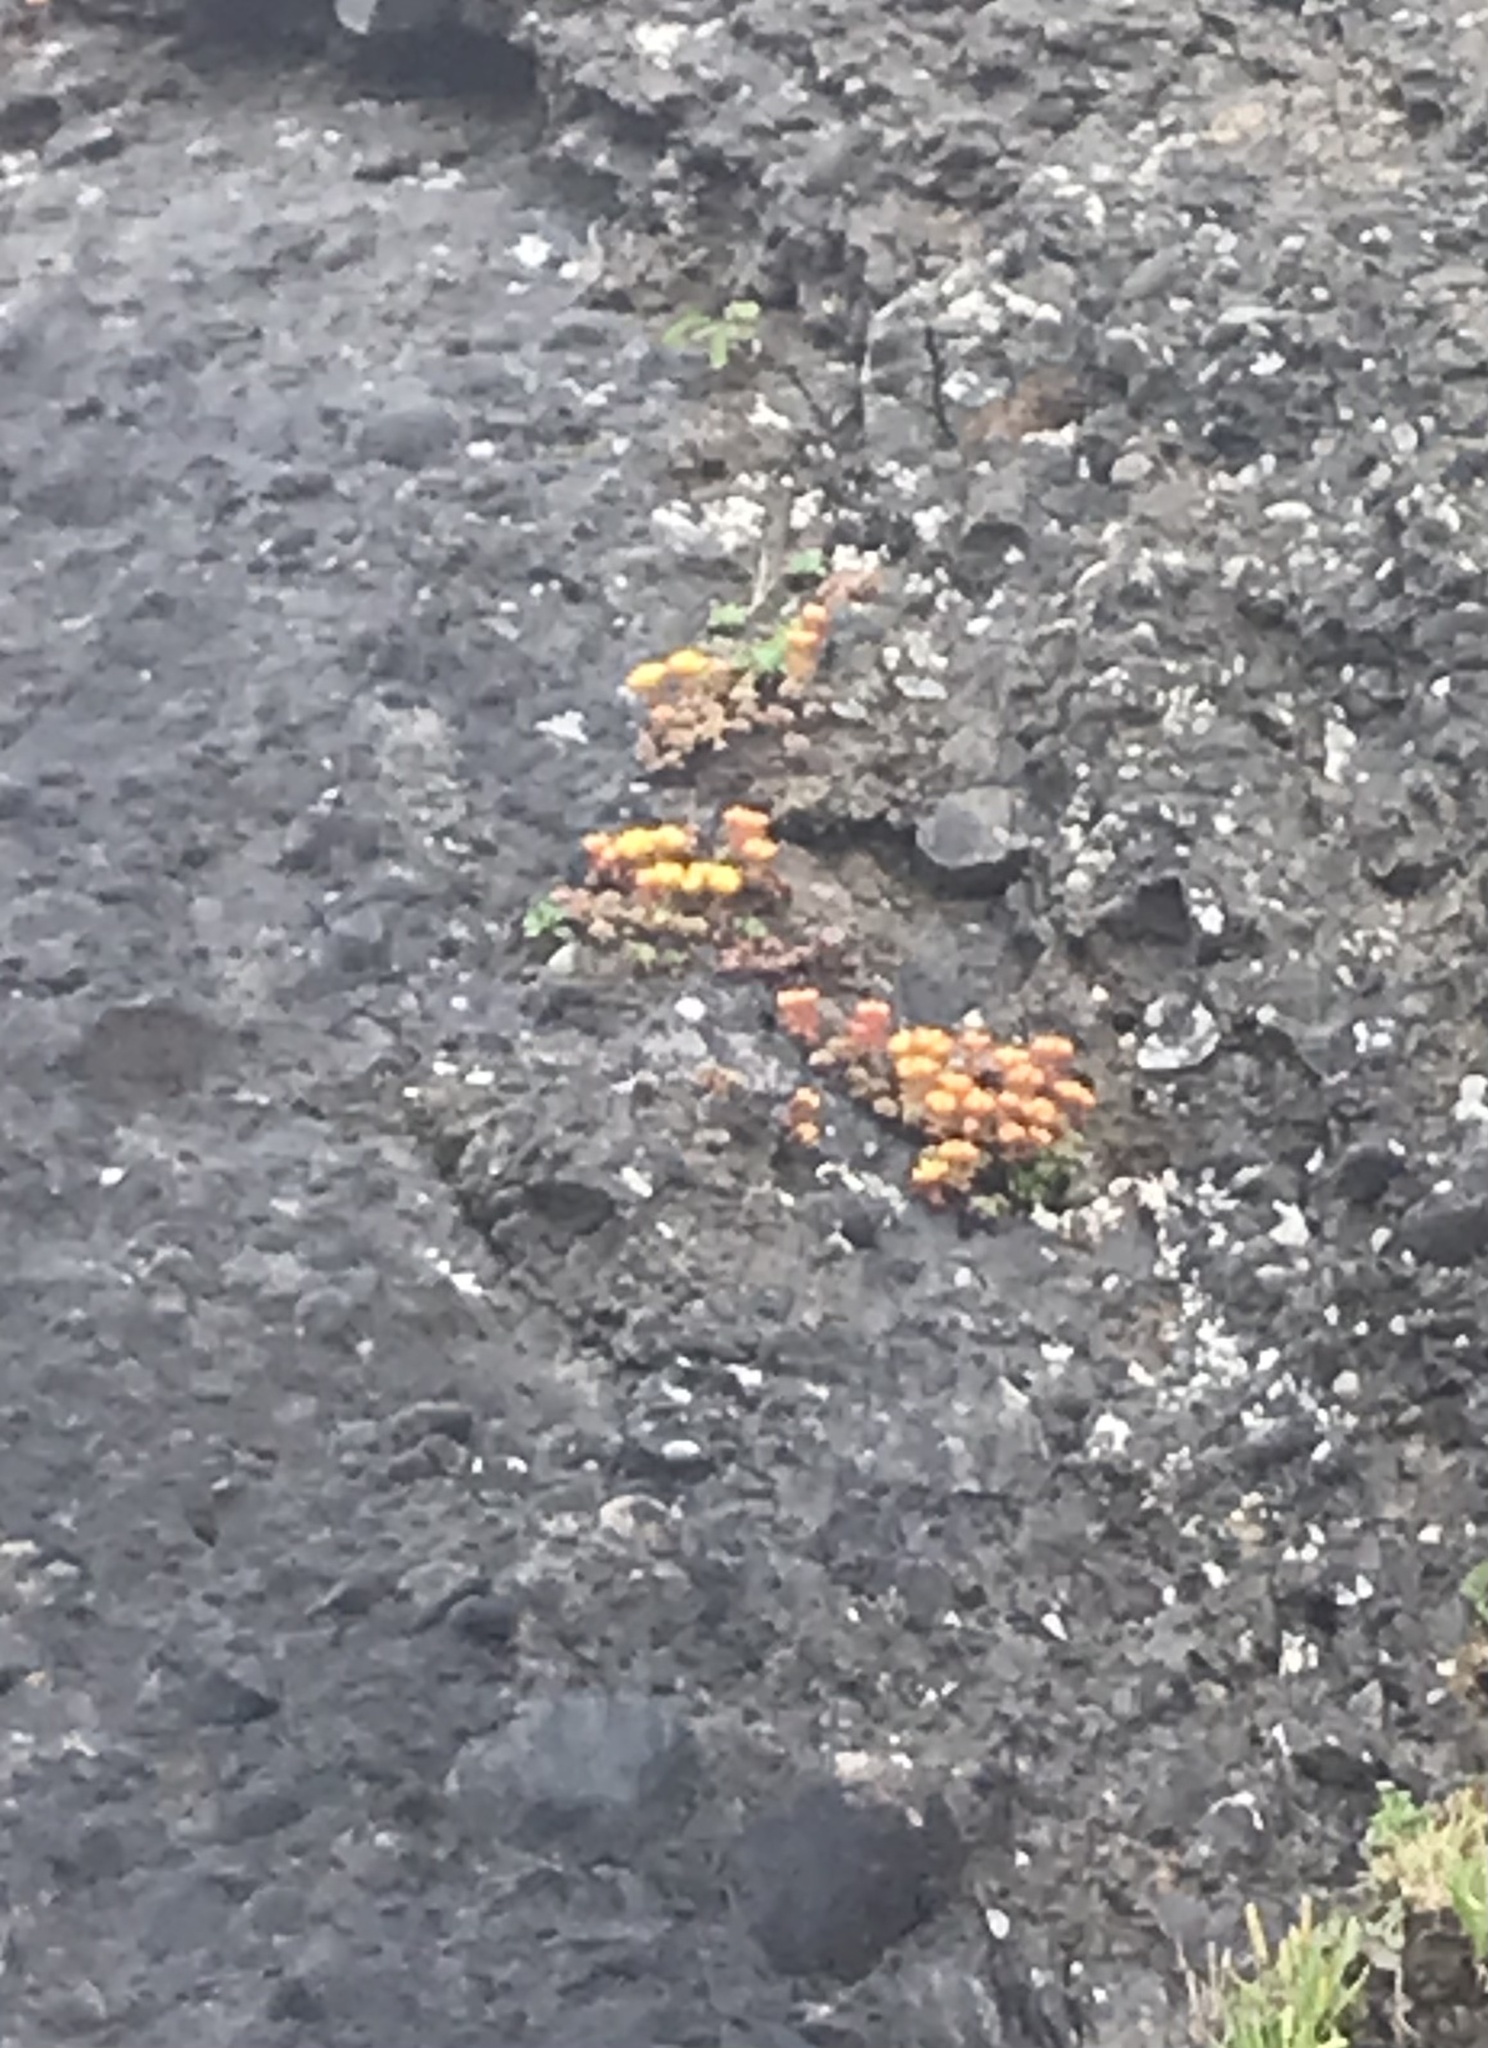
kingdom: Plantae
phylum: Tracheophyta
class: Magnoliopsida
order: Saxifragales
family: Crassulaceae
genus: Sedum
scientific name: Sedum oreganum
